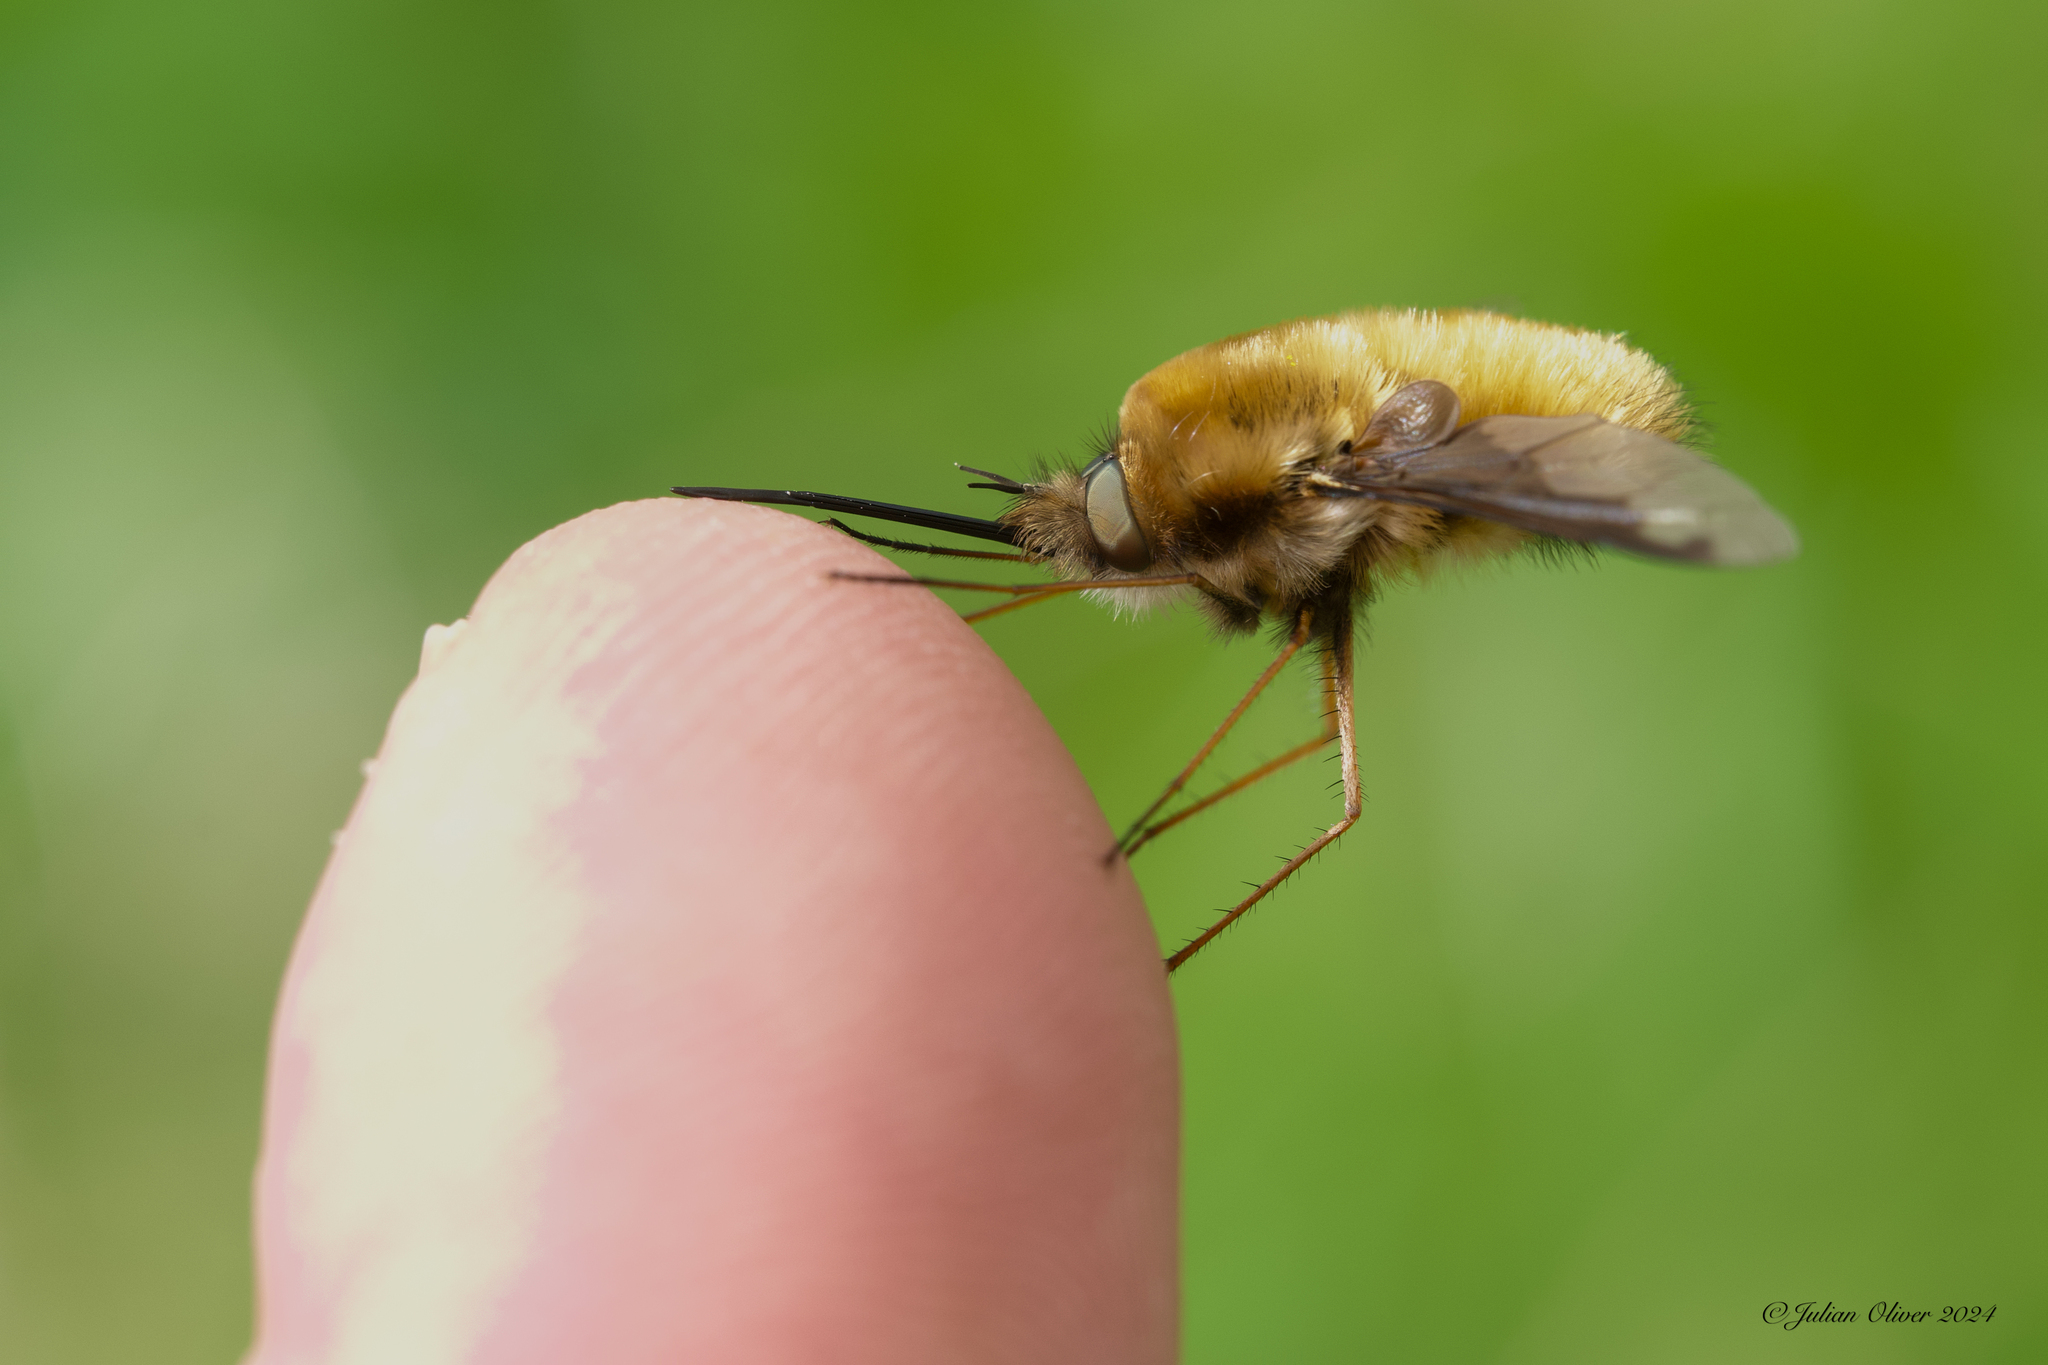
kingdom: Animalia
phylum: Arthropoda
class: Insecta
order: Diptera
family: Bombyliidae
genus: Bombylius
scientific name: Bombylius major
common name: Bee fly
